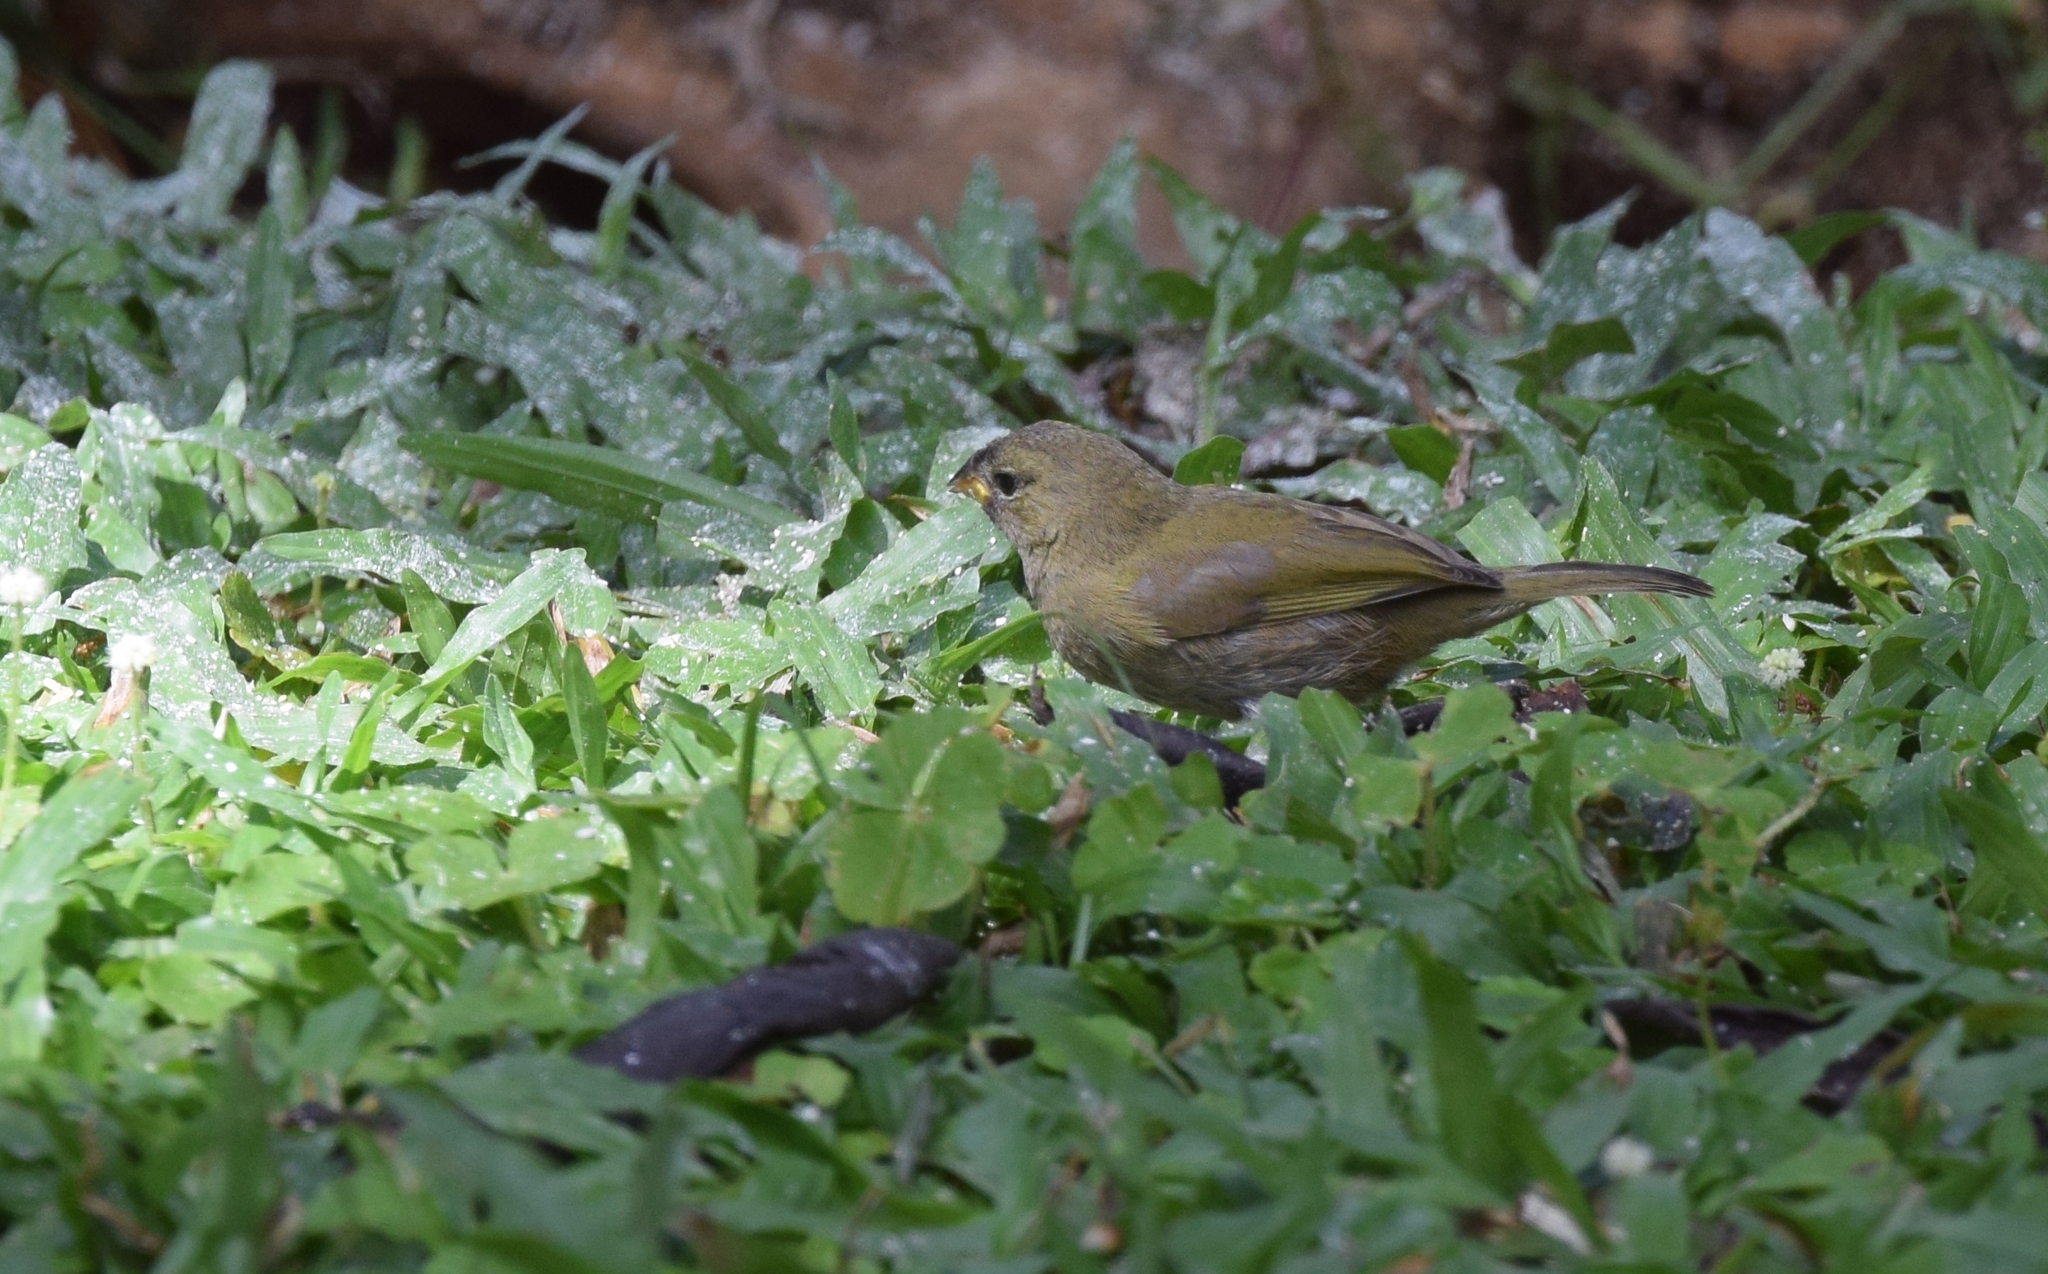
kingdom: Animalia
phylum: Chordata
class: Aves
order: Passeriformes
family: Thraupidae
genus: Tiaris
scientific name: Tiaris olivaceus
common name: Yellow-faced grassquit
